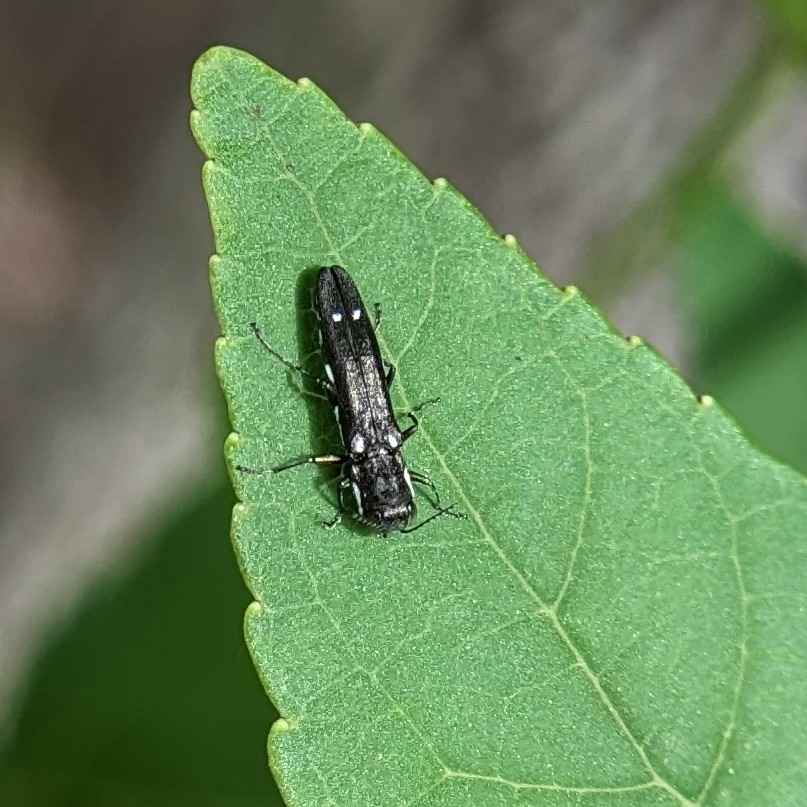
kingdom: Animalia
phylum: Arthropoda
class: Insecta
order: Coleoptera
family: Buprestidae
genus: Agrilus
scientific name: Agrilus obsoletoguttatus
